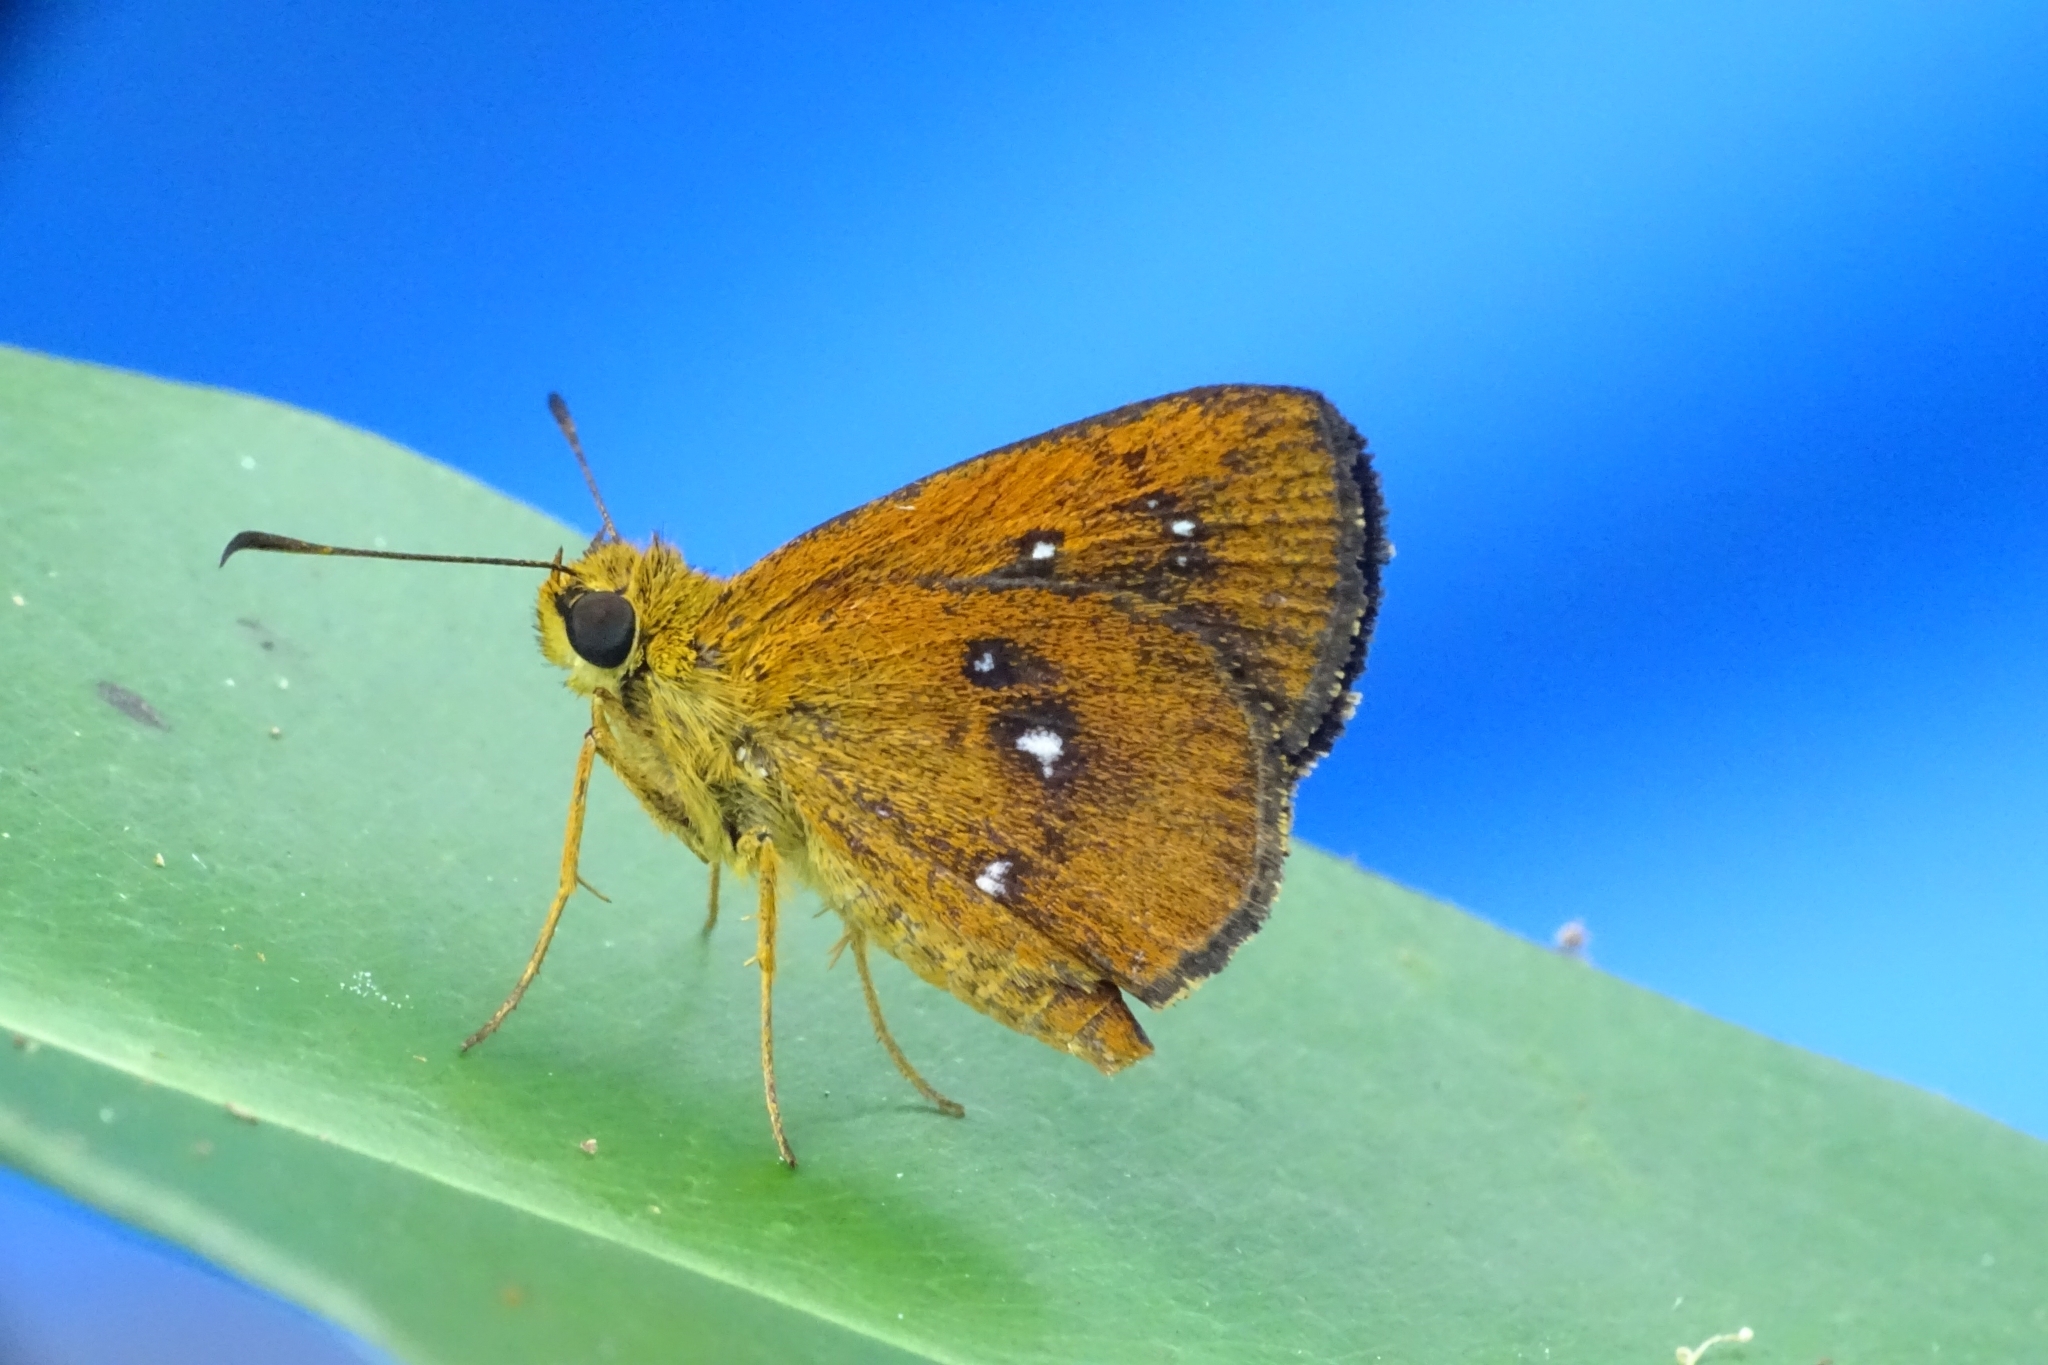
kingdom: Animalia
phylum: Arthropoda
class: Insecta
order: Lepidoptera
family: Hesperiidae
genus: Iambrix
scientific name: Iambrix salsala
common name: Chestnut bob
